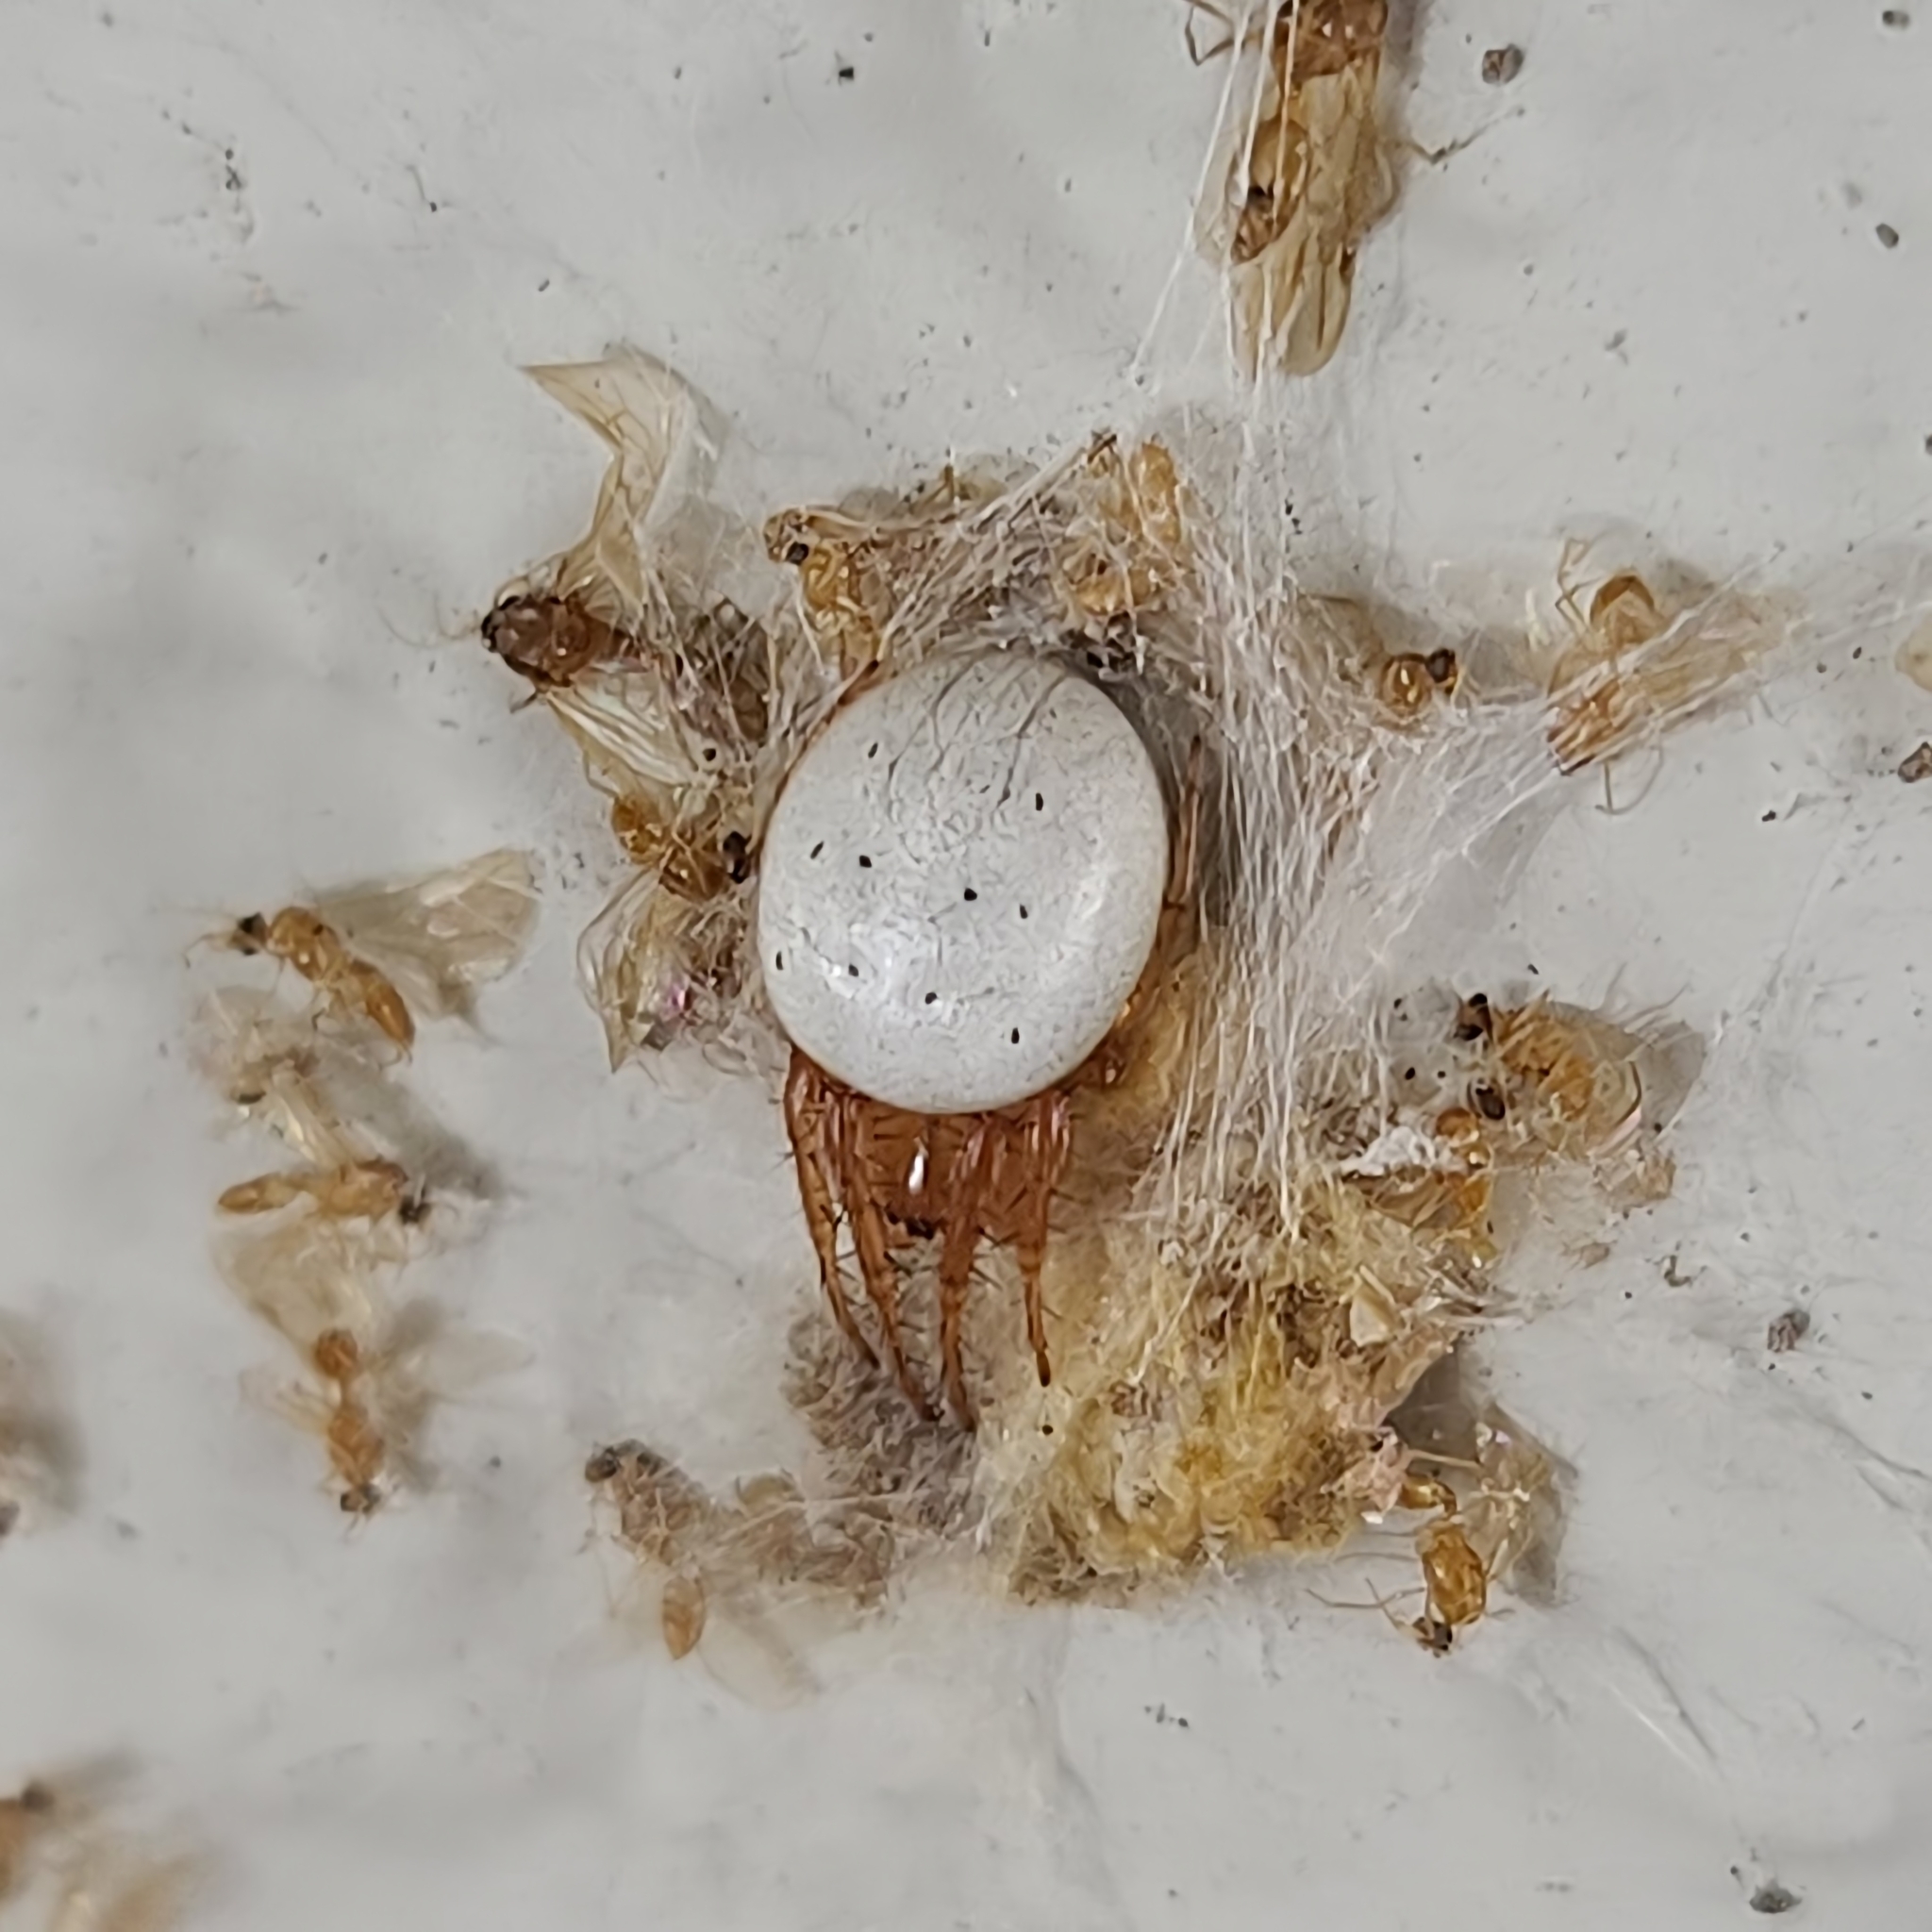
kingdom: Animalia
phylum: Arthropoda
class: Arachnida
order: Araneae
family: Araneidae
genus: Metazygia
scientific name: Metazygia zilloides
